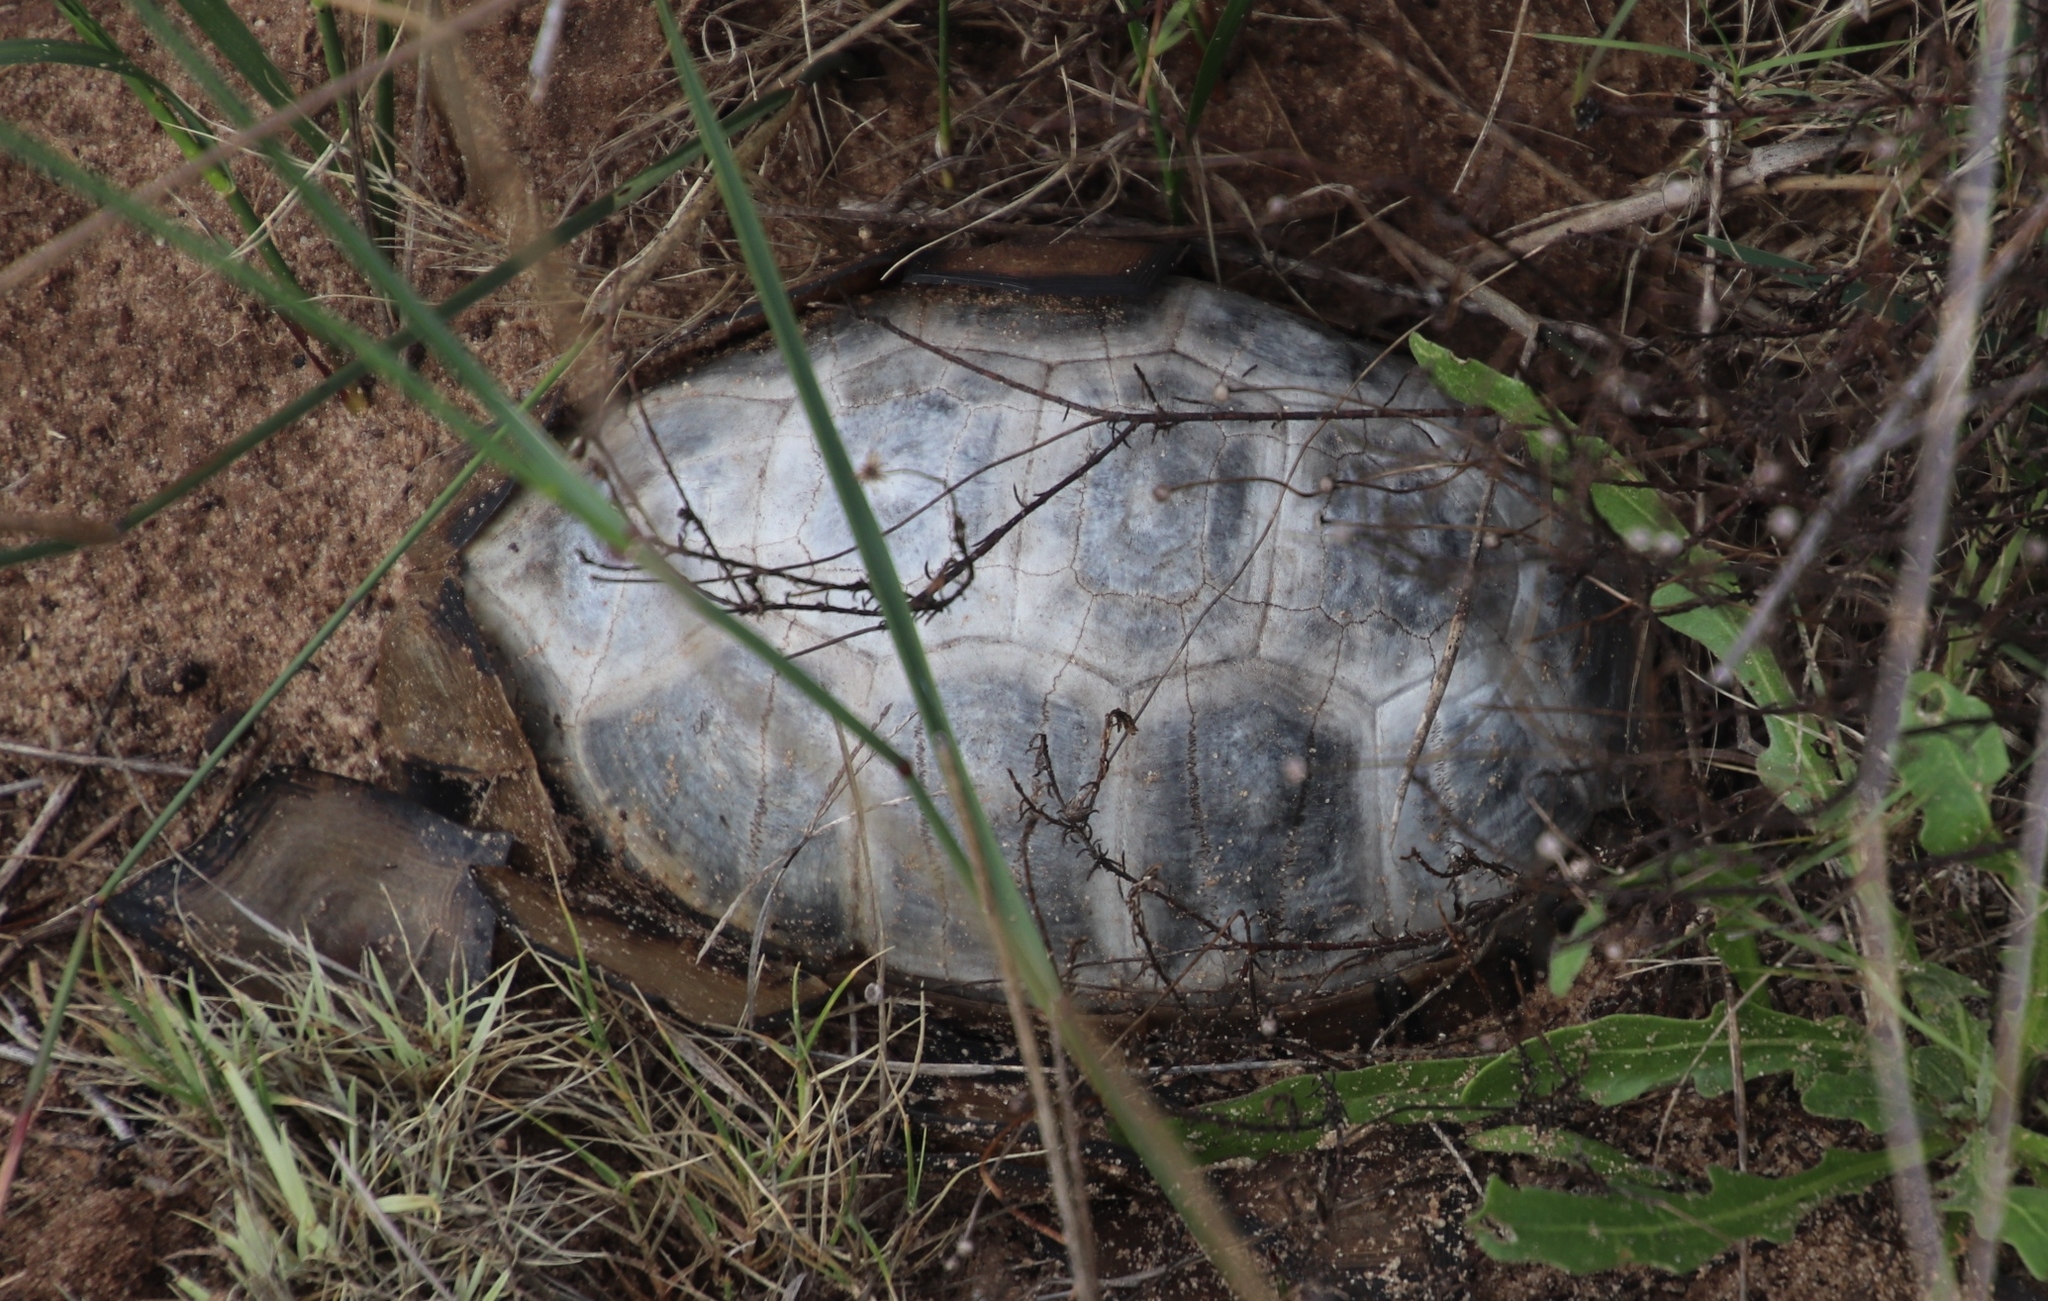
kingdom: Animalia
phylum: Chordata
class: Testudines
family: Testudinidae
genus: Chersina
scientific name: Chersina angulata
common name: South african bowsprit tortoise
